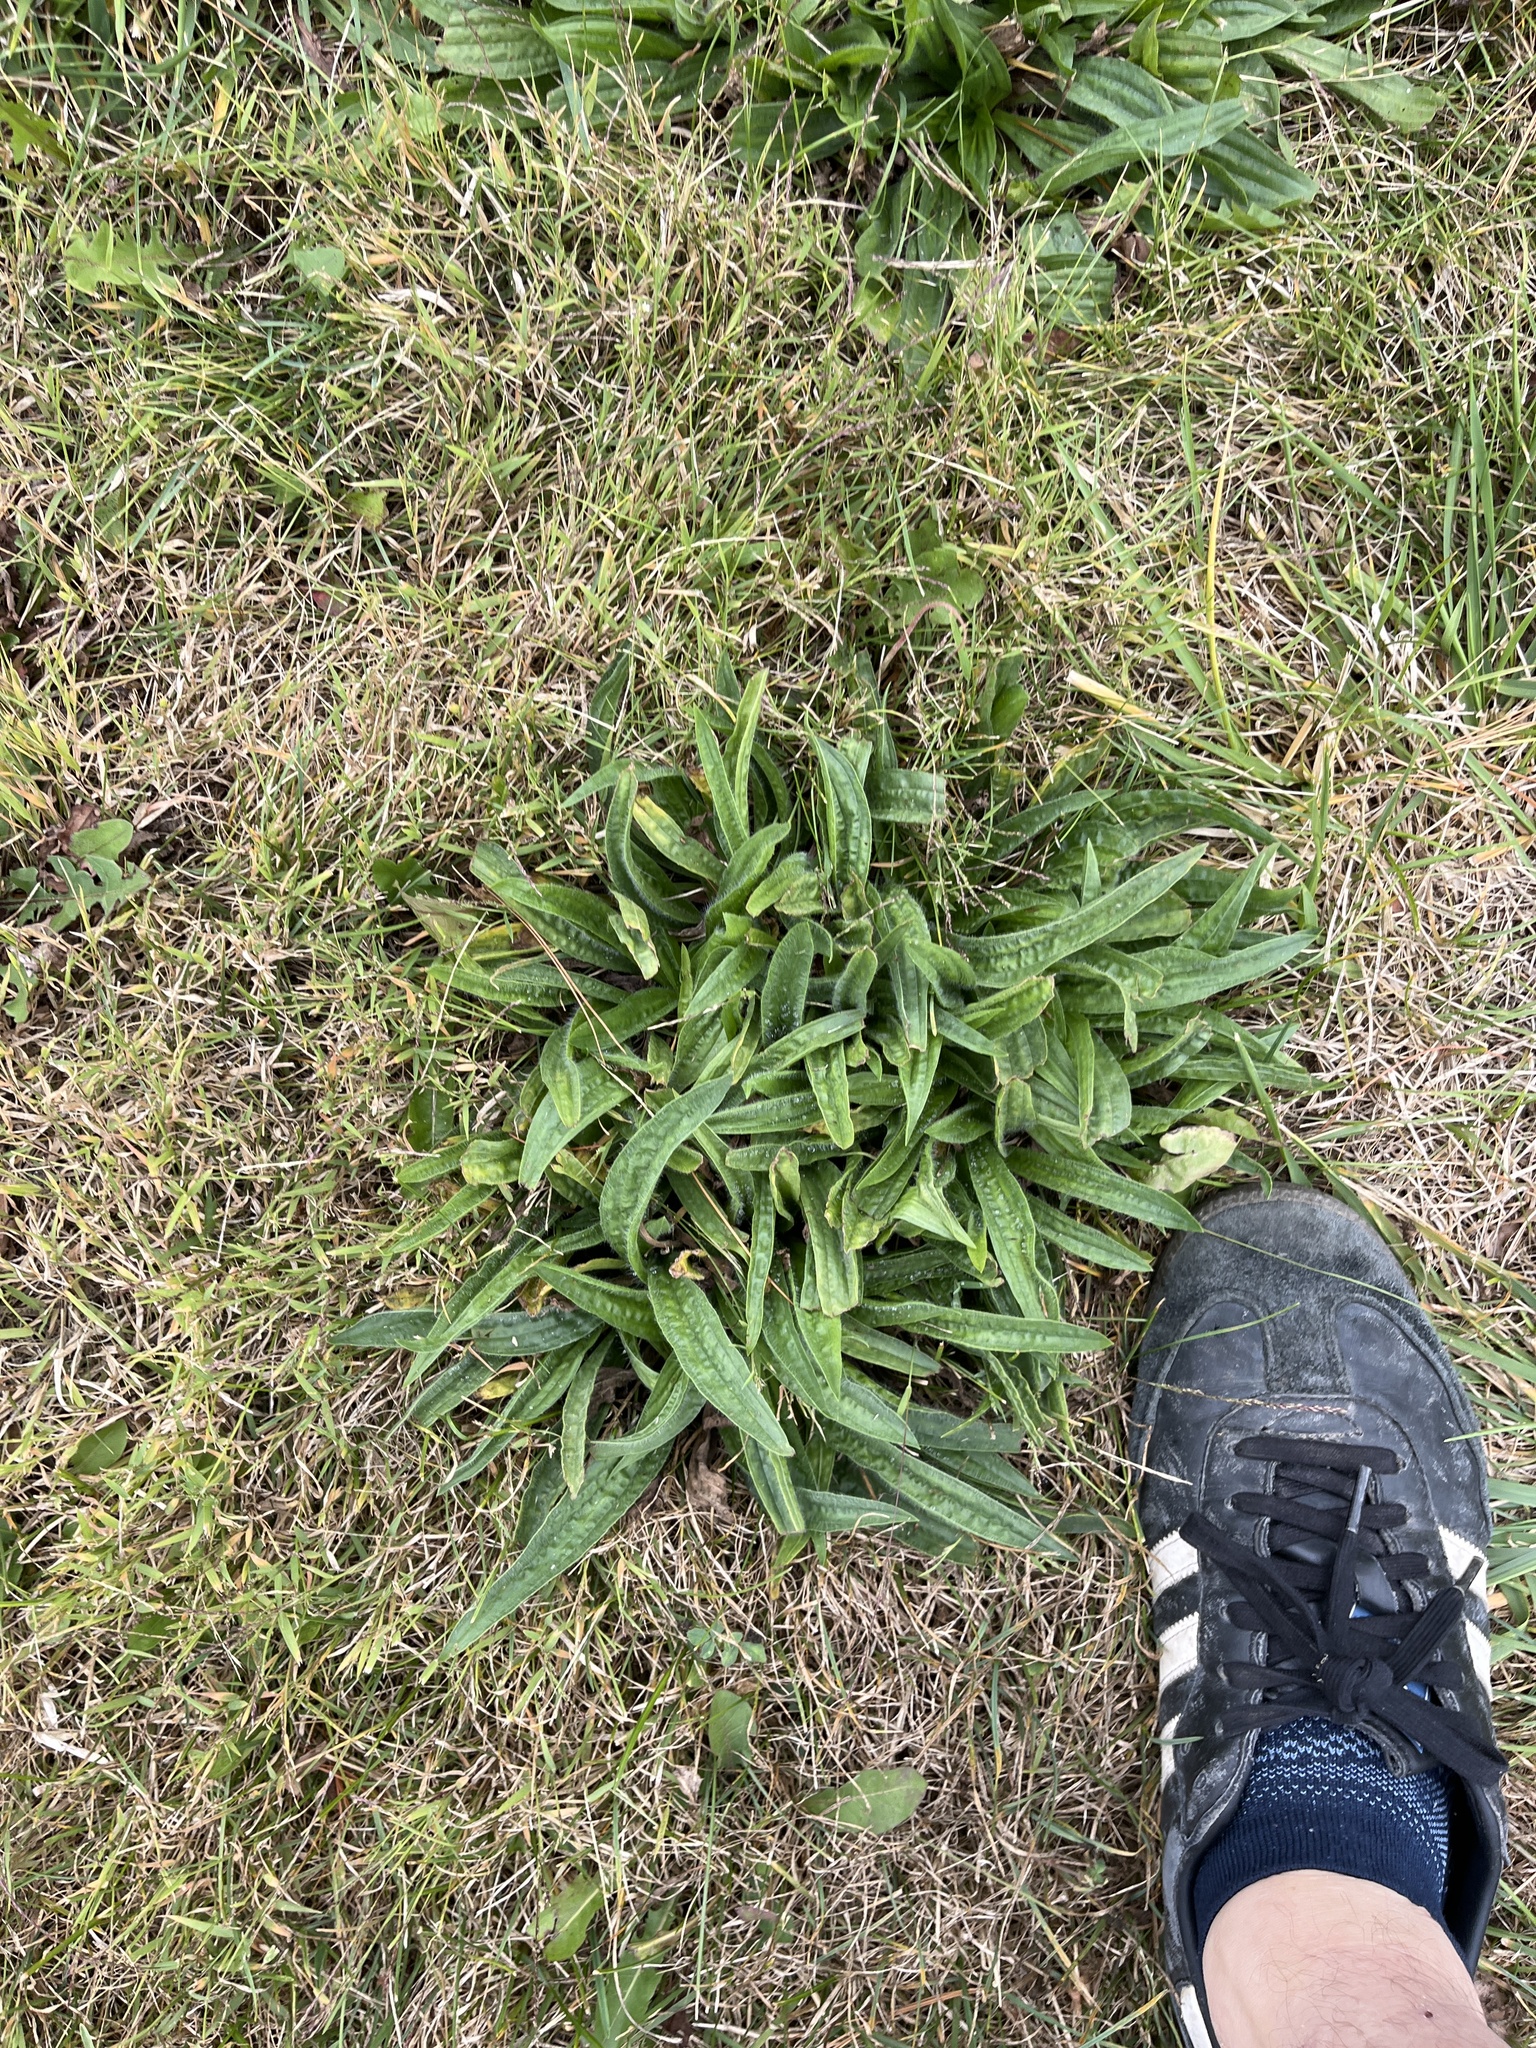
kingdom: Plantae
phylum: Tracheophyta
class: Magnoliopsida
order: Lamiales
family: Plantaginaceae
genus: Plantago
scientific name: Plantago lanceolata
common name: Ribwort plantain
